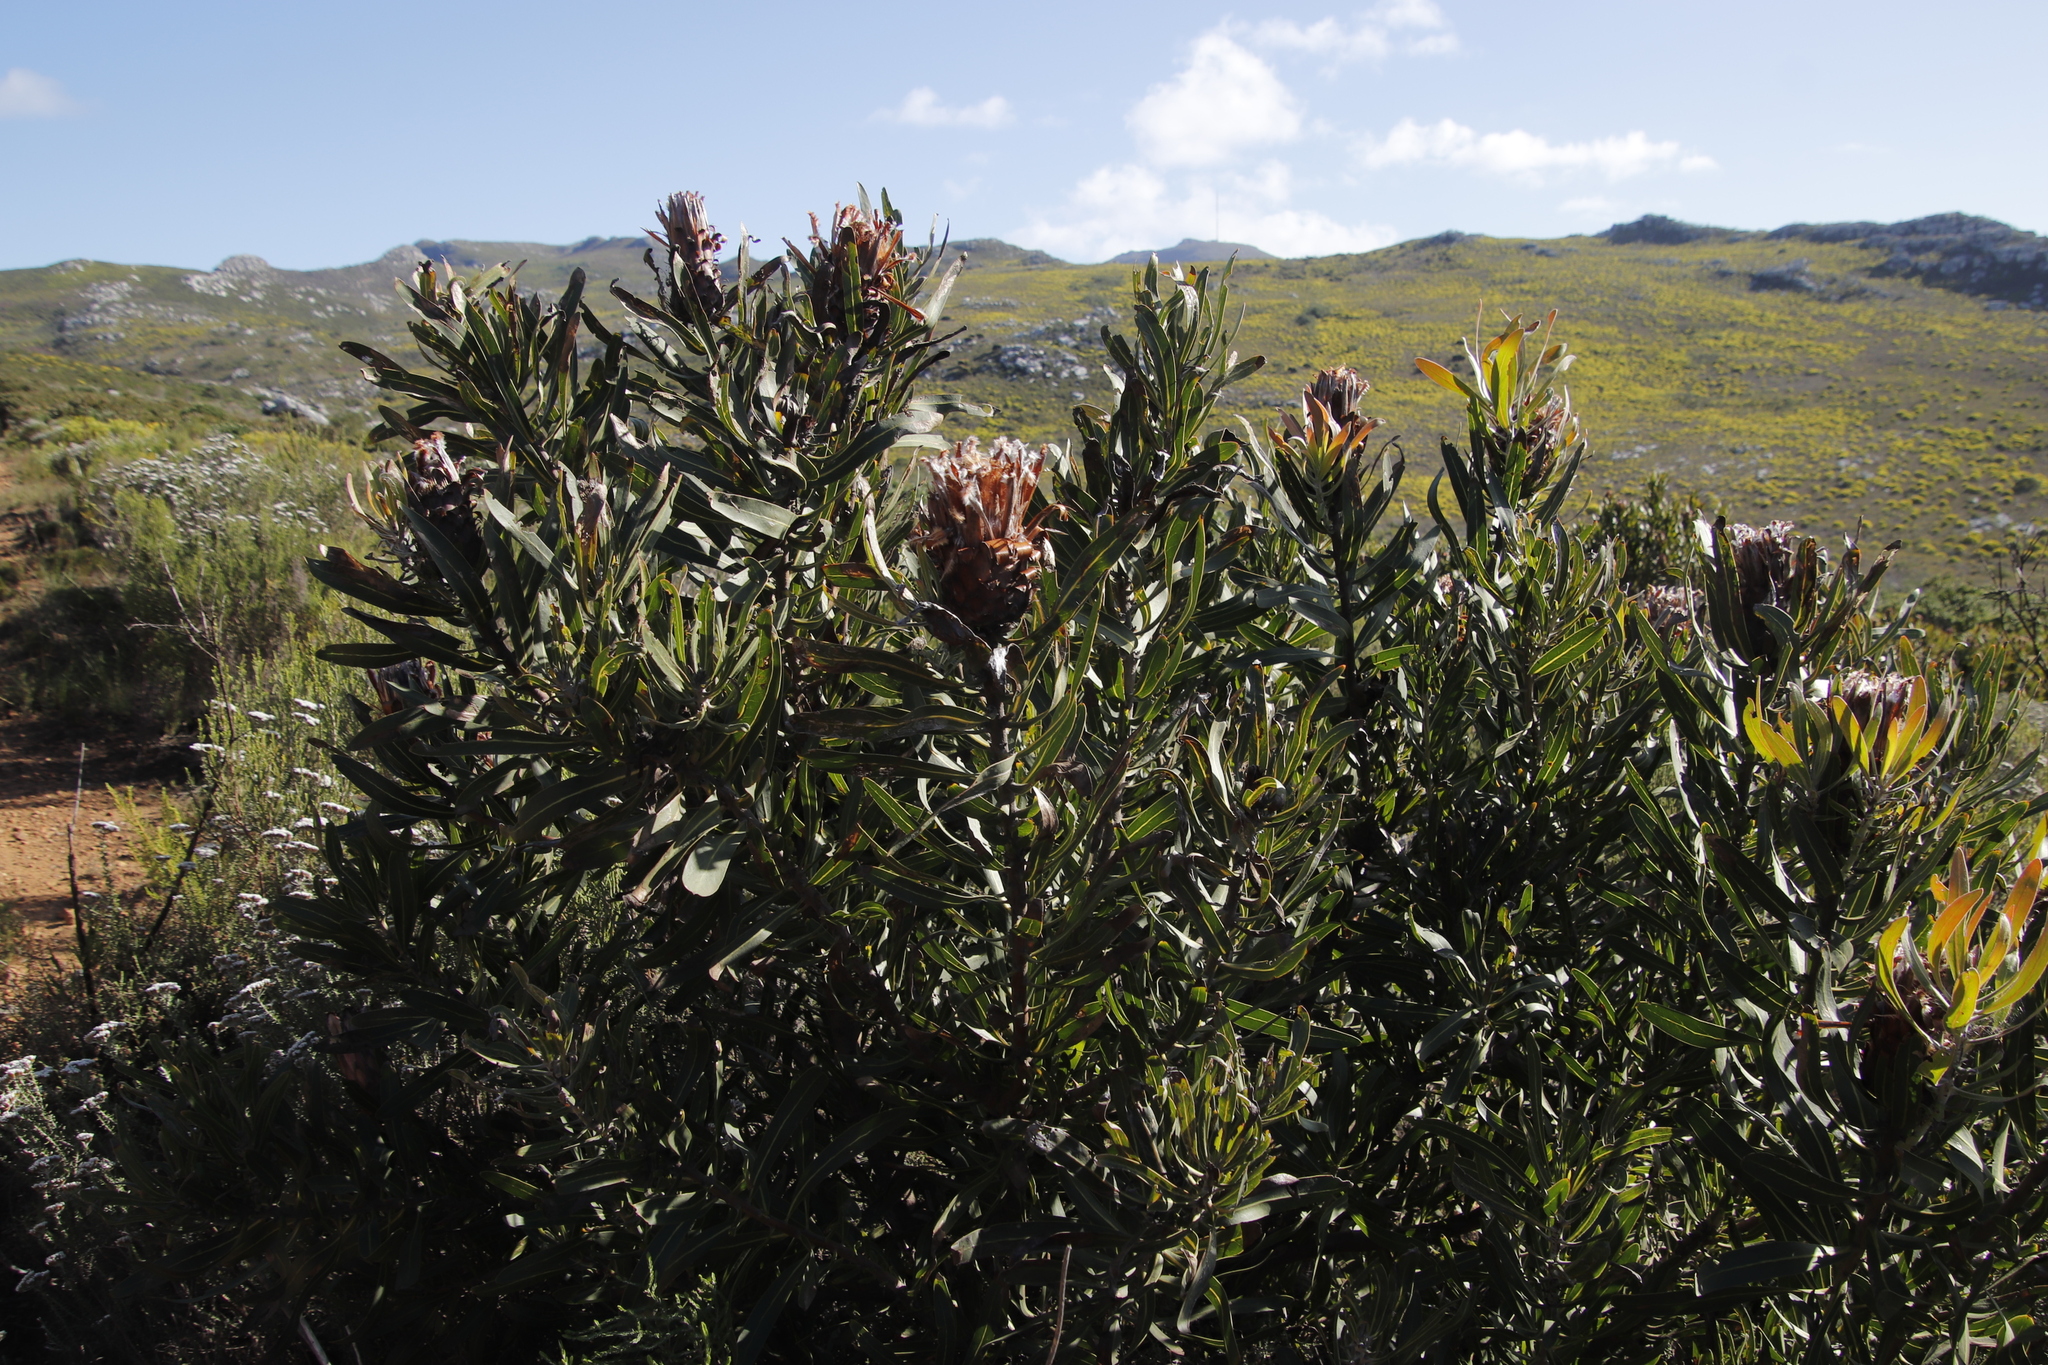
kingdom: Plantae
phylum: Tracheophyta
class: Magnoliopsida
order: Proteales
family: Proteaceae
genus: Protea
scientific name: Protea
